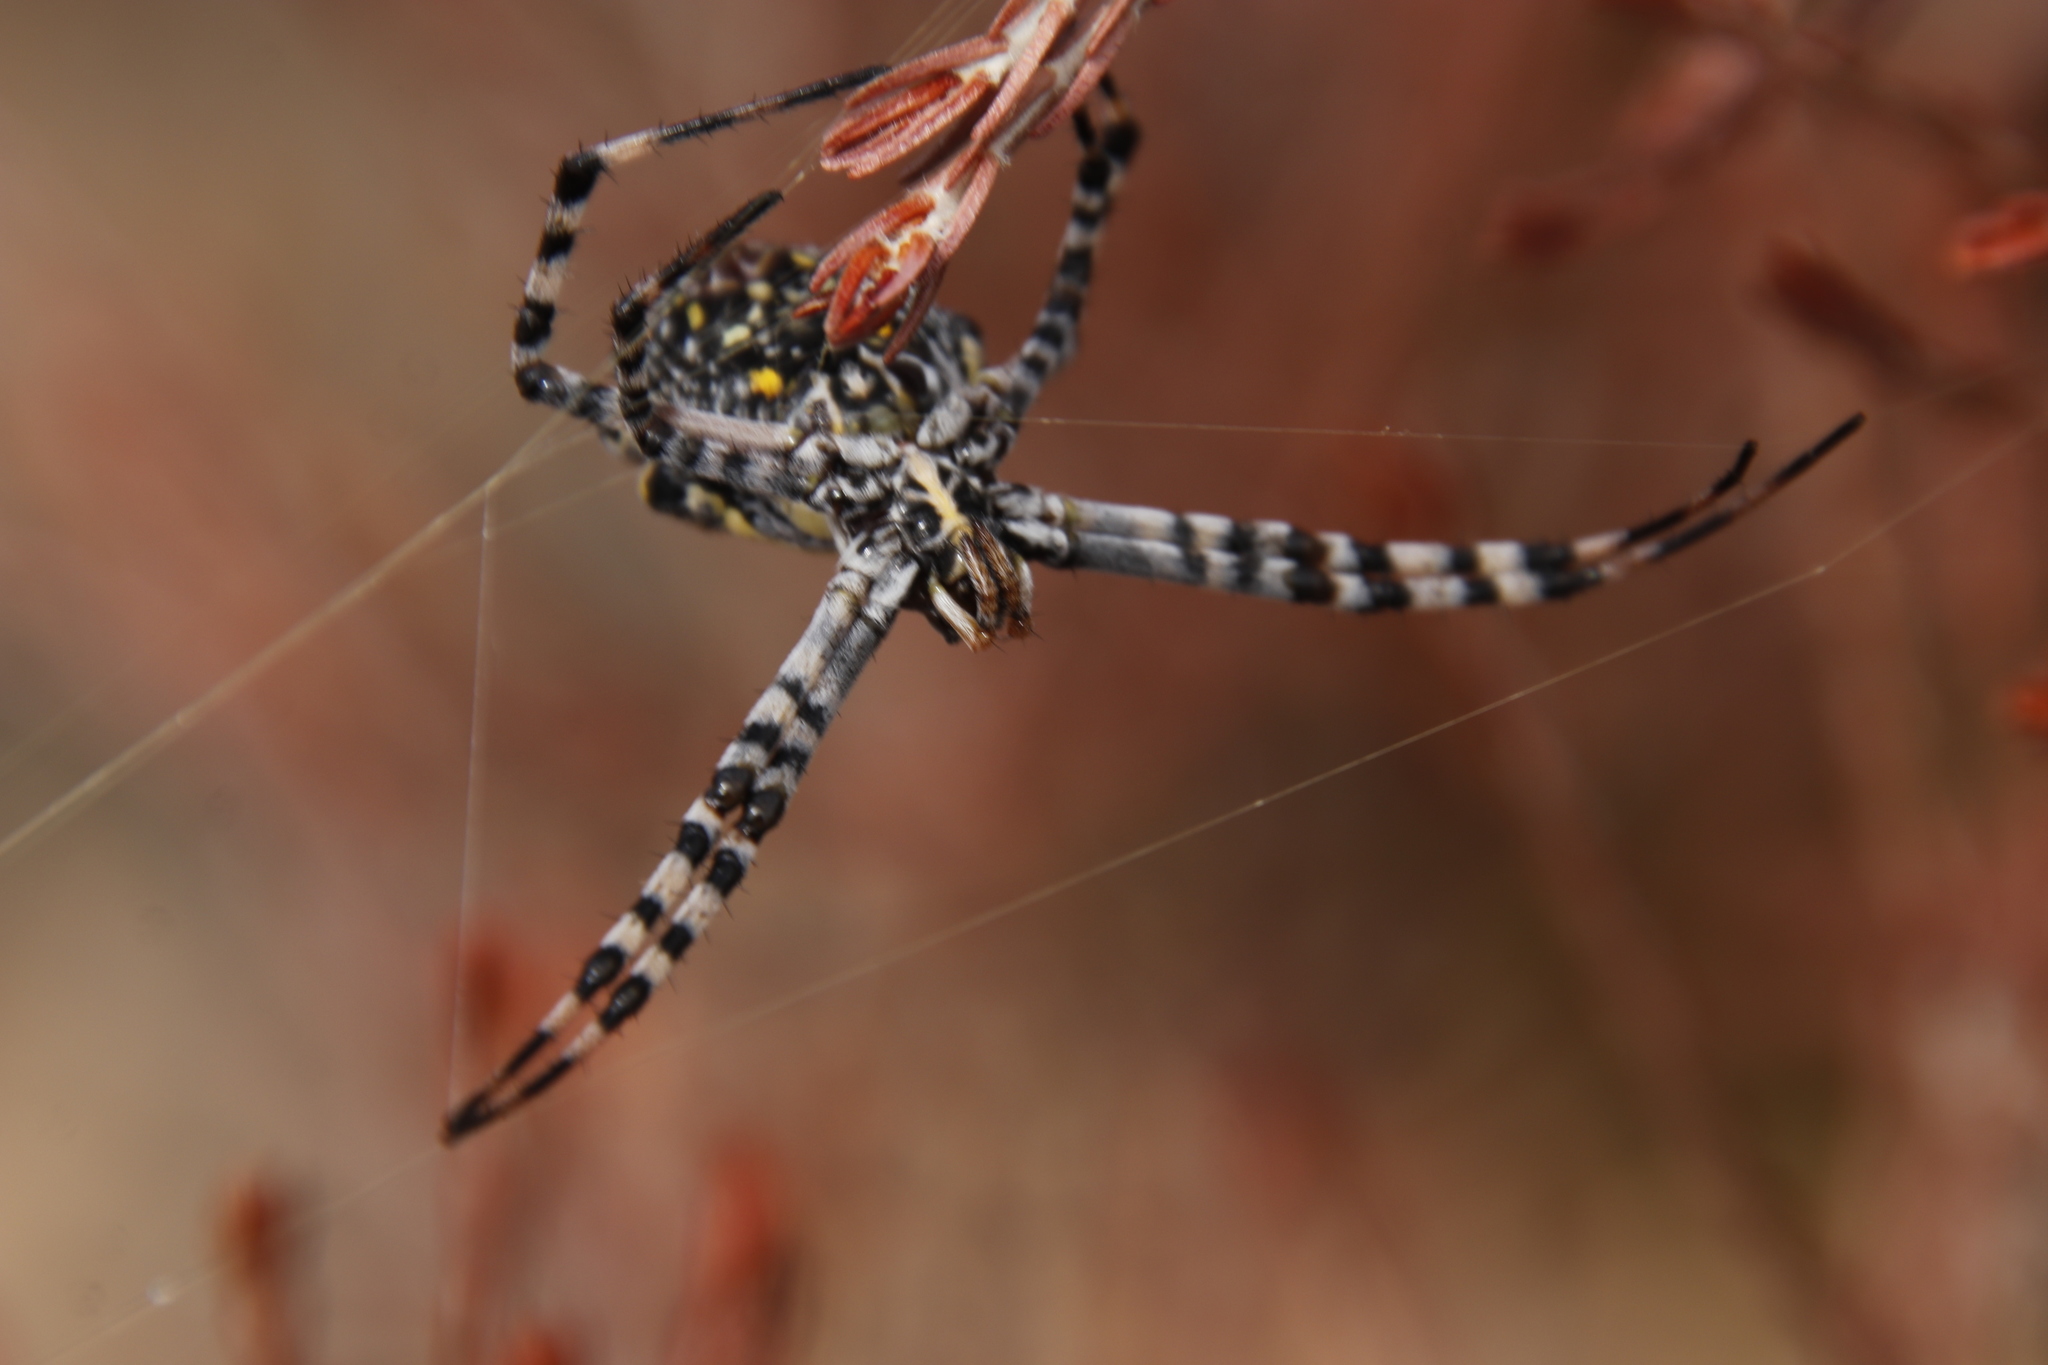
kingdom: Animalia
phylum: Arthropoda
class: Arachnida
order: Araneae
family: Araneidae
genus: Argiope
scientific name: Argiope australis
